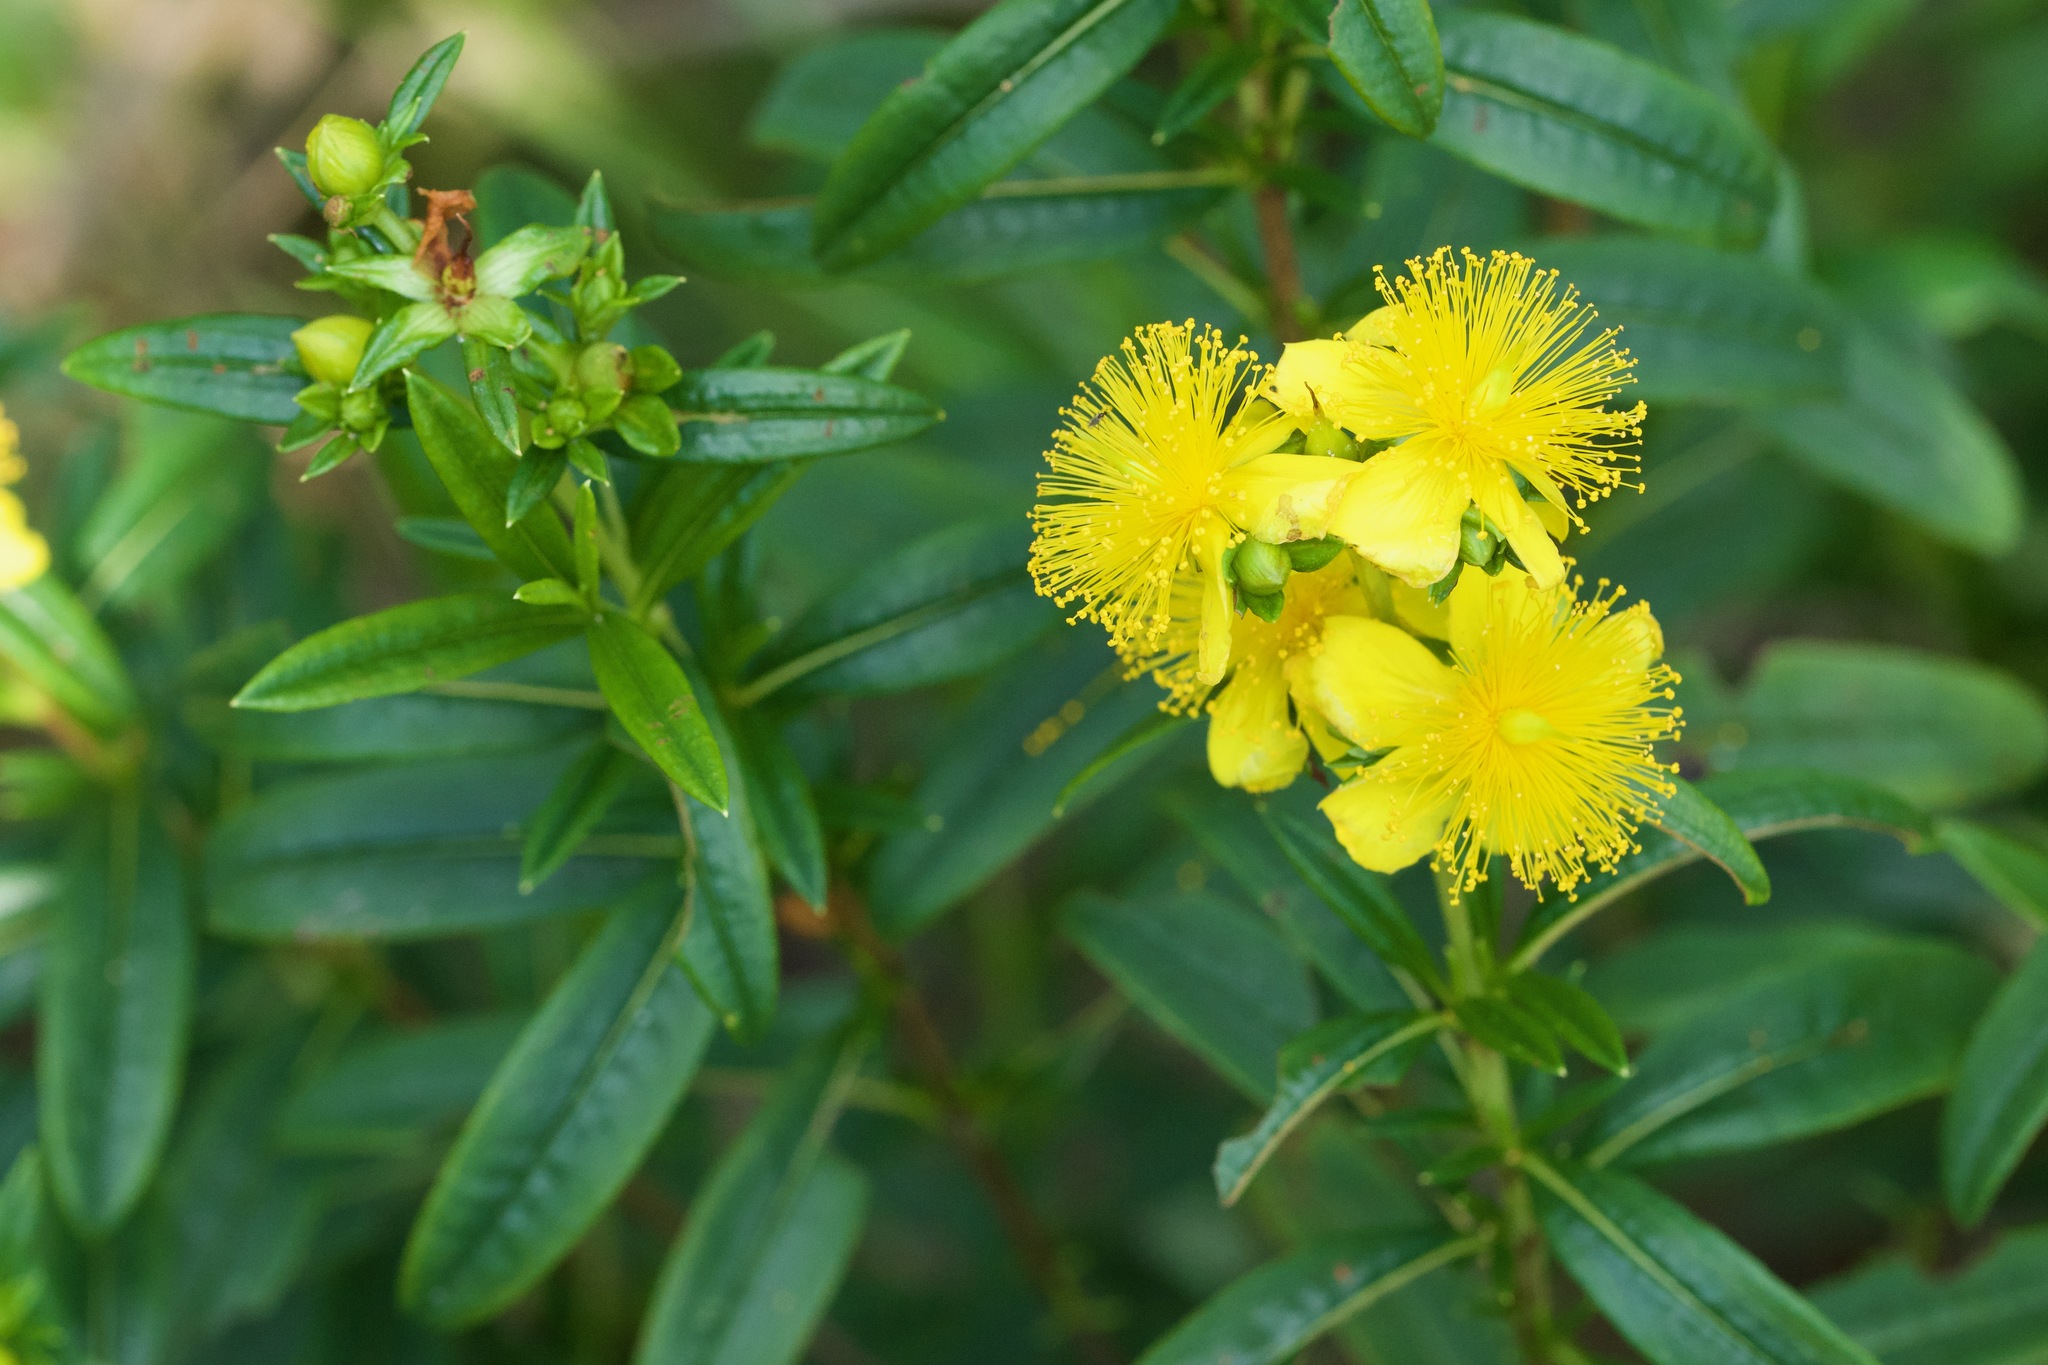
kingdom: Plantae
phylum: Tracheophyta
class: Magnoliopsida
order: Malpighiales
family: Hypericaceae
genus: Hypericum
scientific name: Hypericum prolificum
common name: Shrubby st. john's-wort
